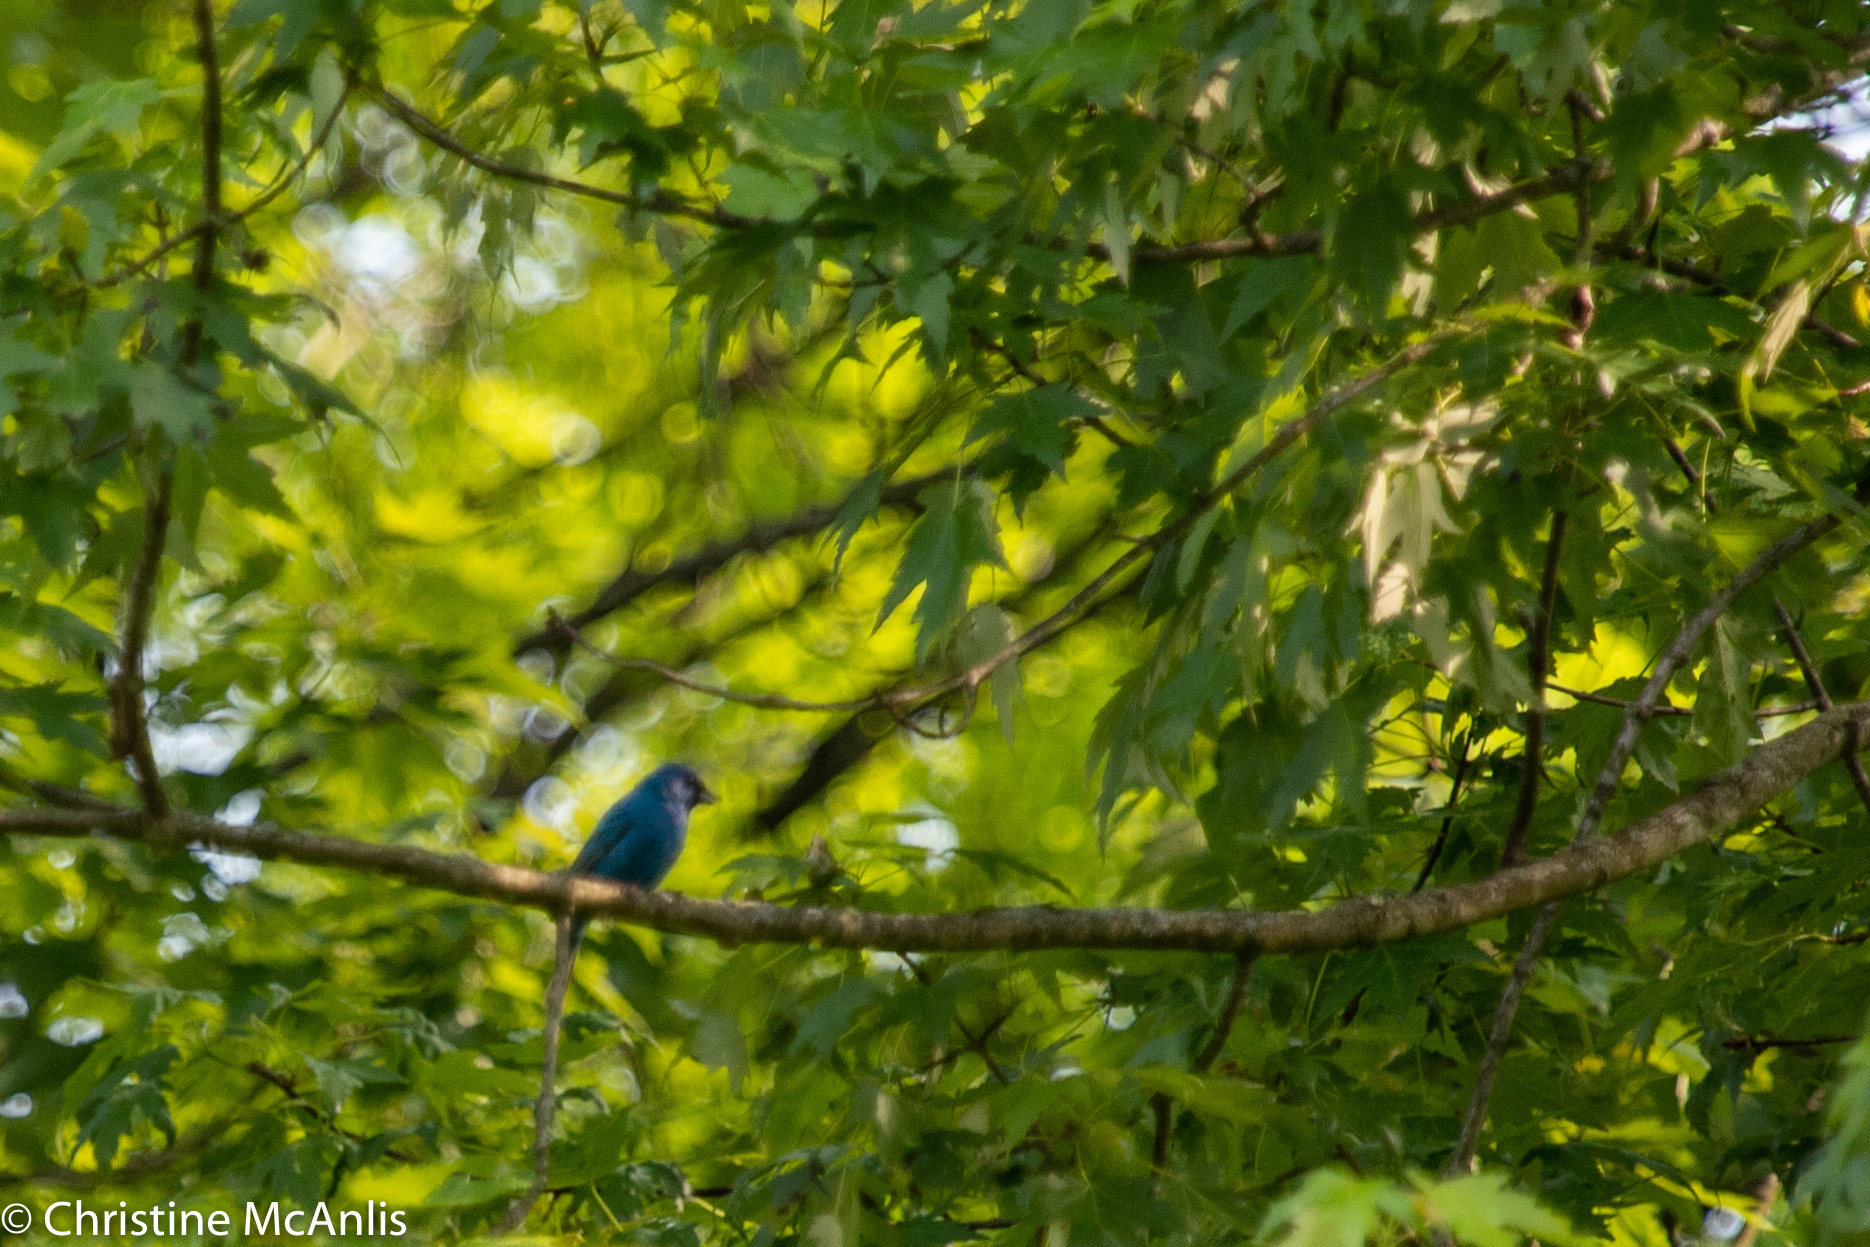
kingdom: Animalia
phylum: Chordata
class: Aves
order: Passeriformes
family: Cardinalidae
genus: Passerina
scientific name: Passerina cyanea
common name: Indigo bunting
